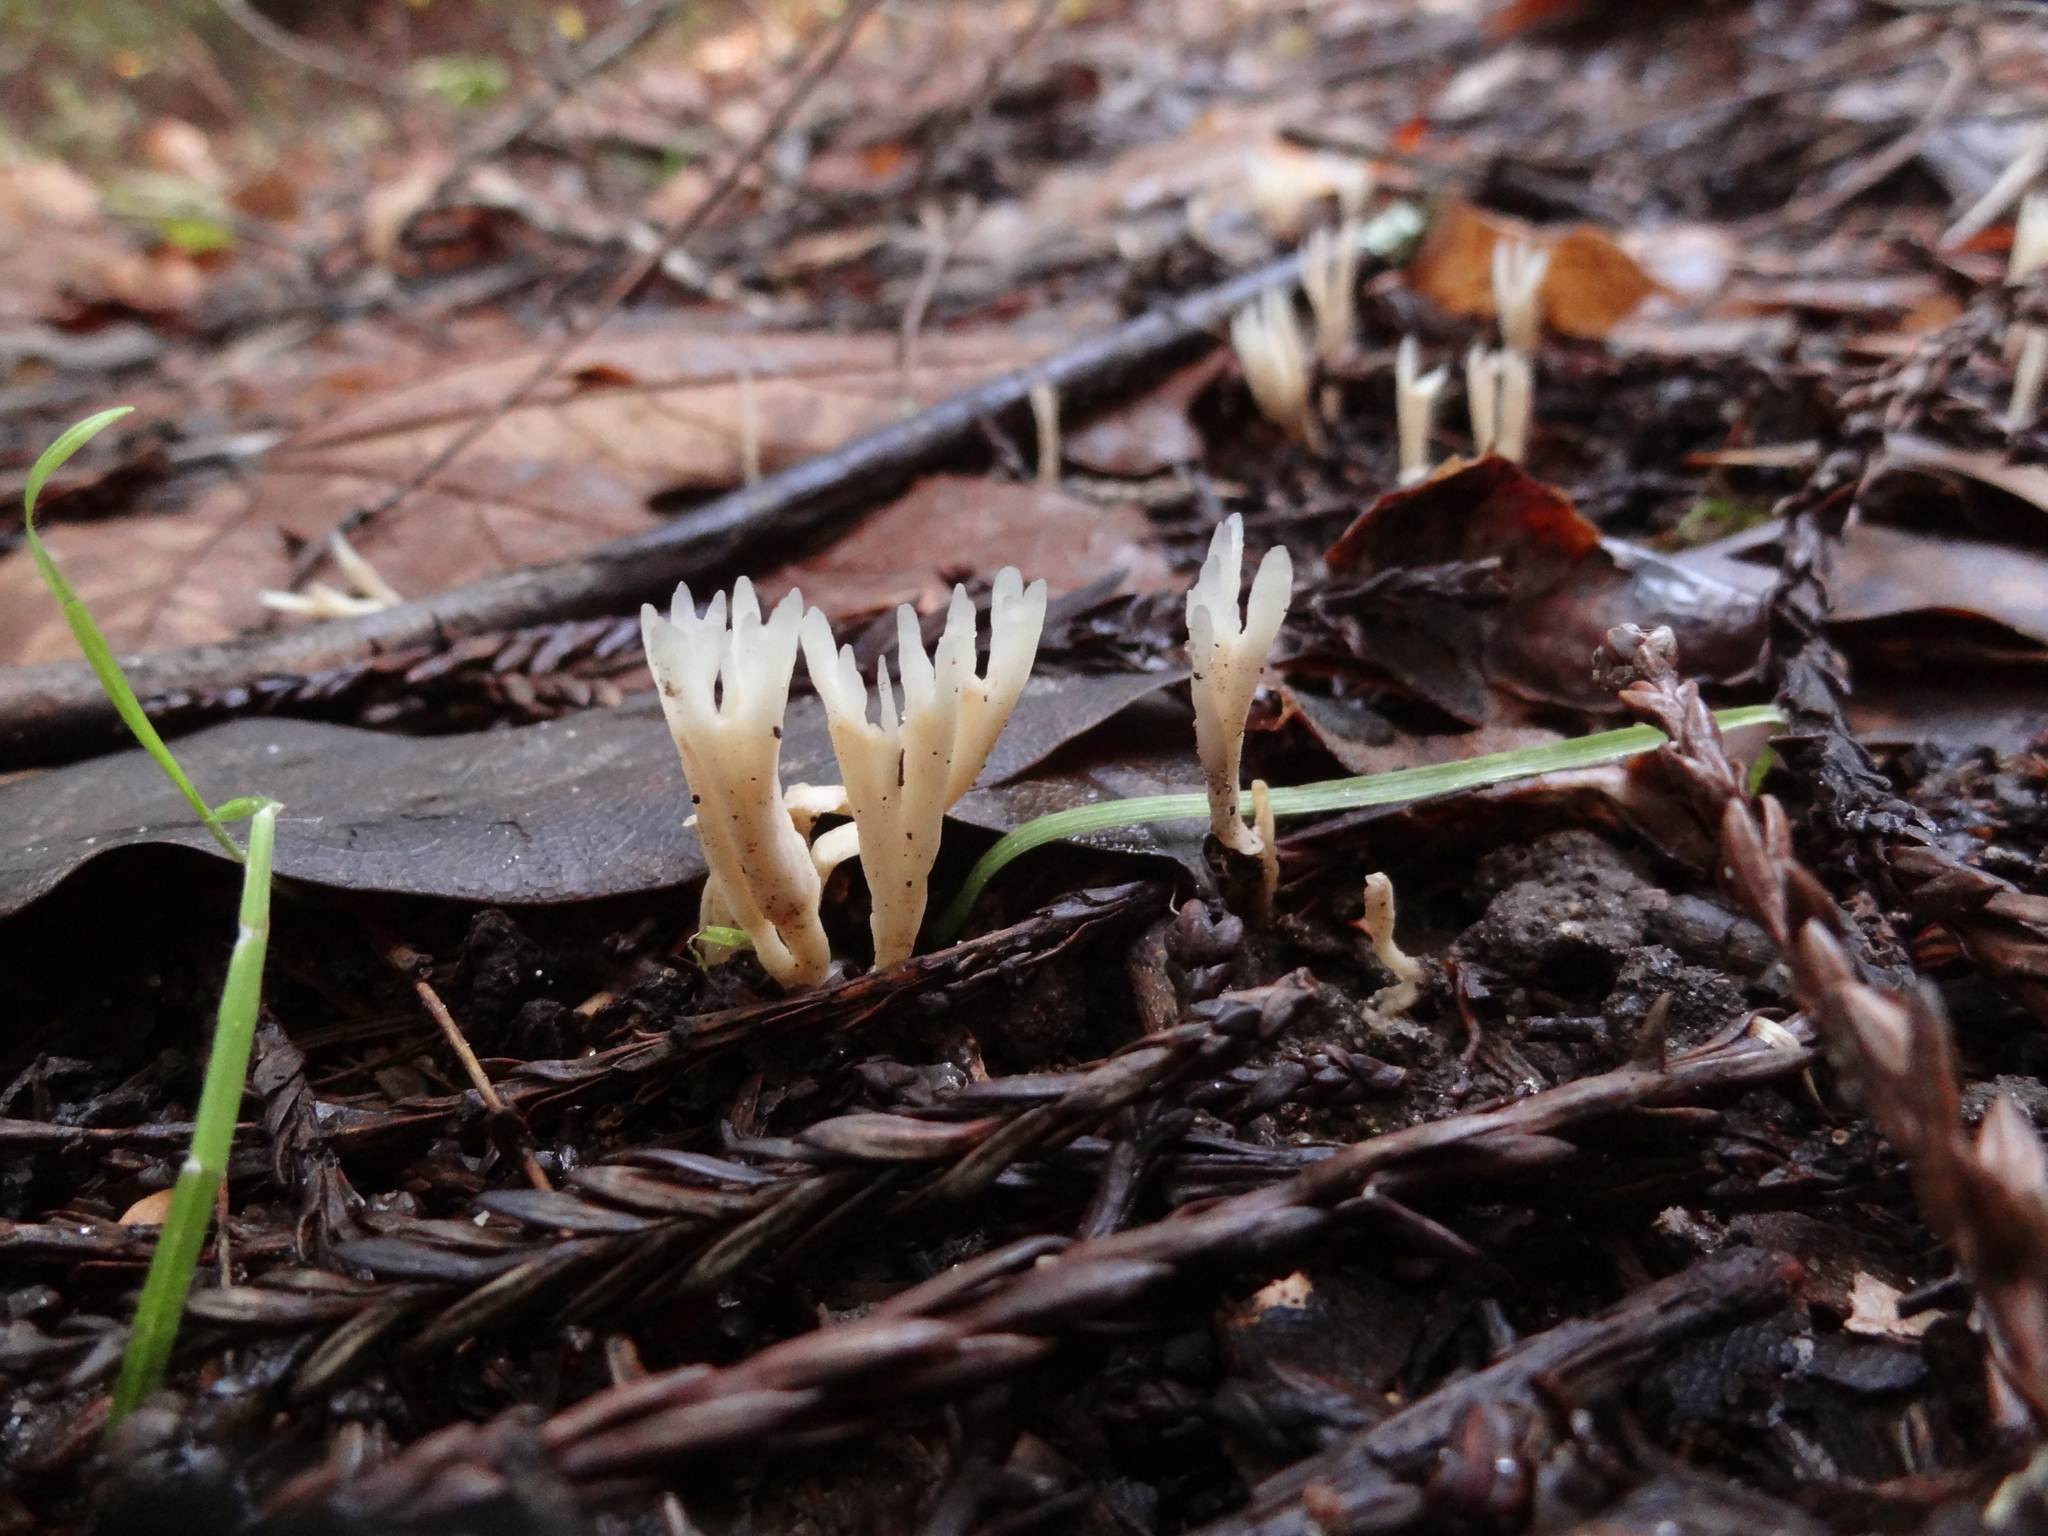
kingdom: Fungi
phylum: Basidiomycota
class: Agaricomycetes
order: Tremellodendropsidales
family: Tremellodendropsidaceae
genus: Tremellodendropsis
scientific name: Tremellodendropsis tuberosa
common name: Ashen coral
